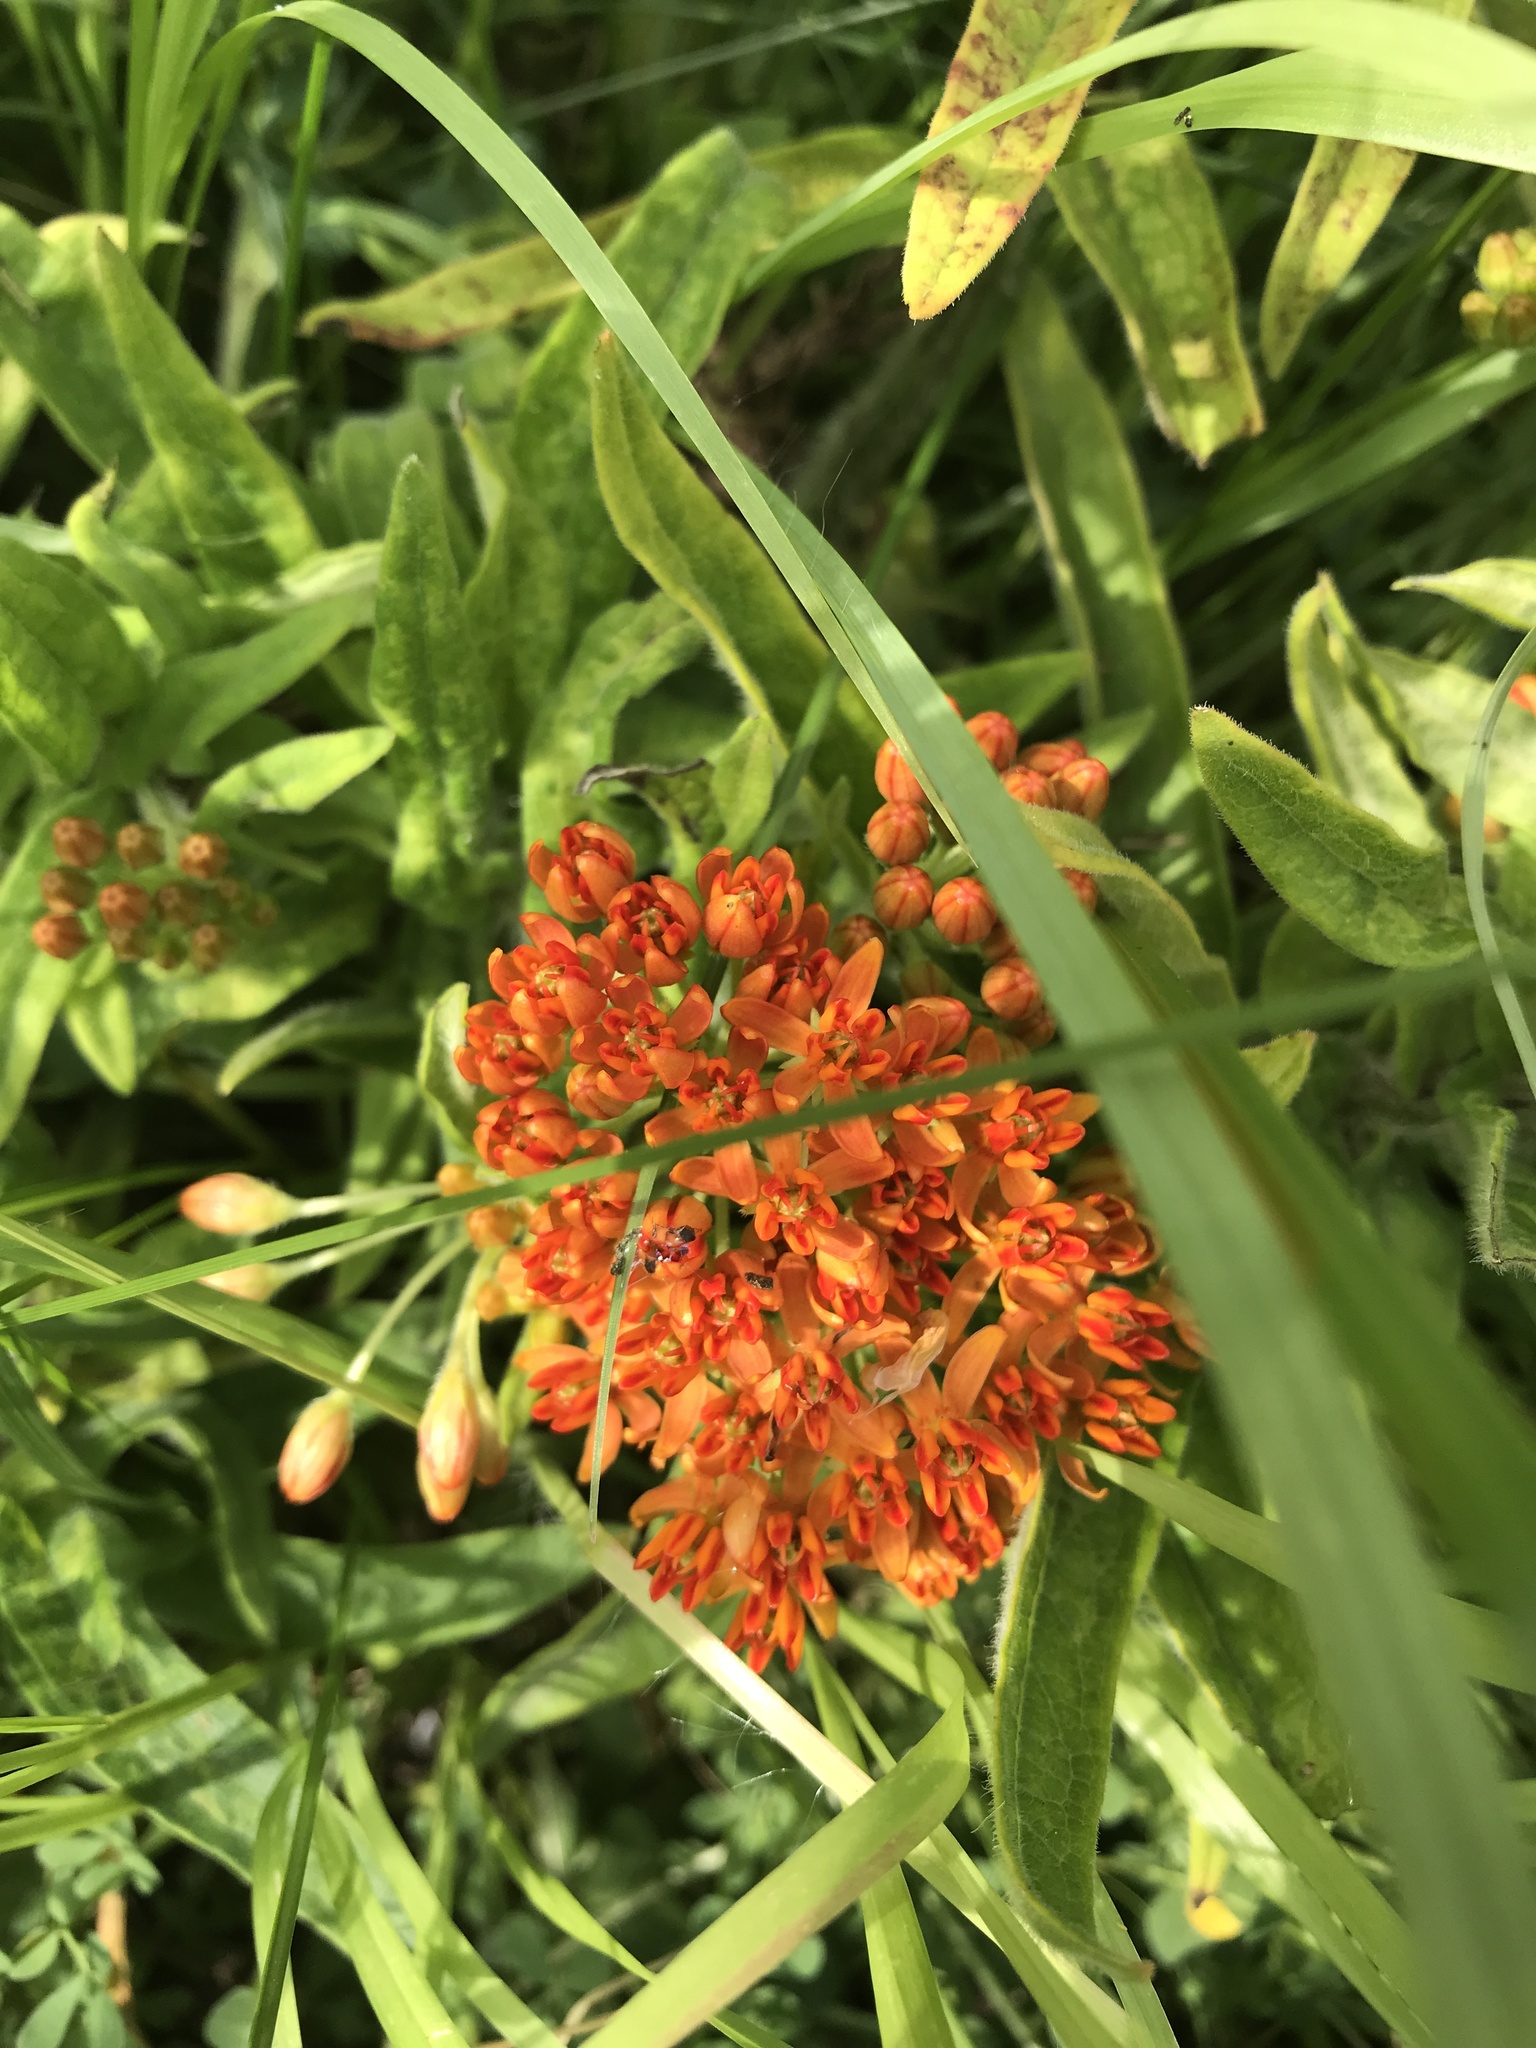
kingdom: Plantae
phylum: Tracheophyta
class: Magnoliopsida
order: Gentianales
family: Apocynaceae
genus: Asclepias
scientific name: Asclepias tuberosa
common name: Butterfly milkweed
